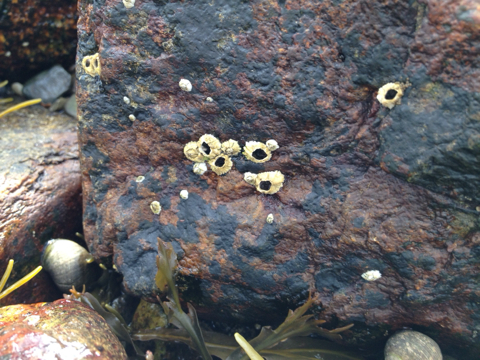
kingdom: Animalia
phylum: Arthropoda
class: Maxillopoda
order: Sessilia
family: Archaeobalanidae
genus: Semibalanus
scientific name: Semibalanus balanoides
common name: Acorn barnacle
